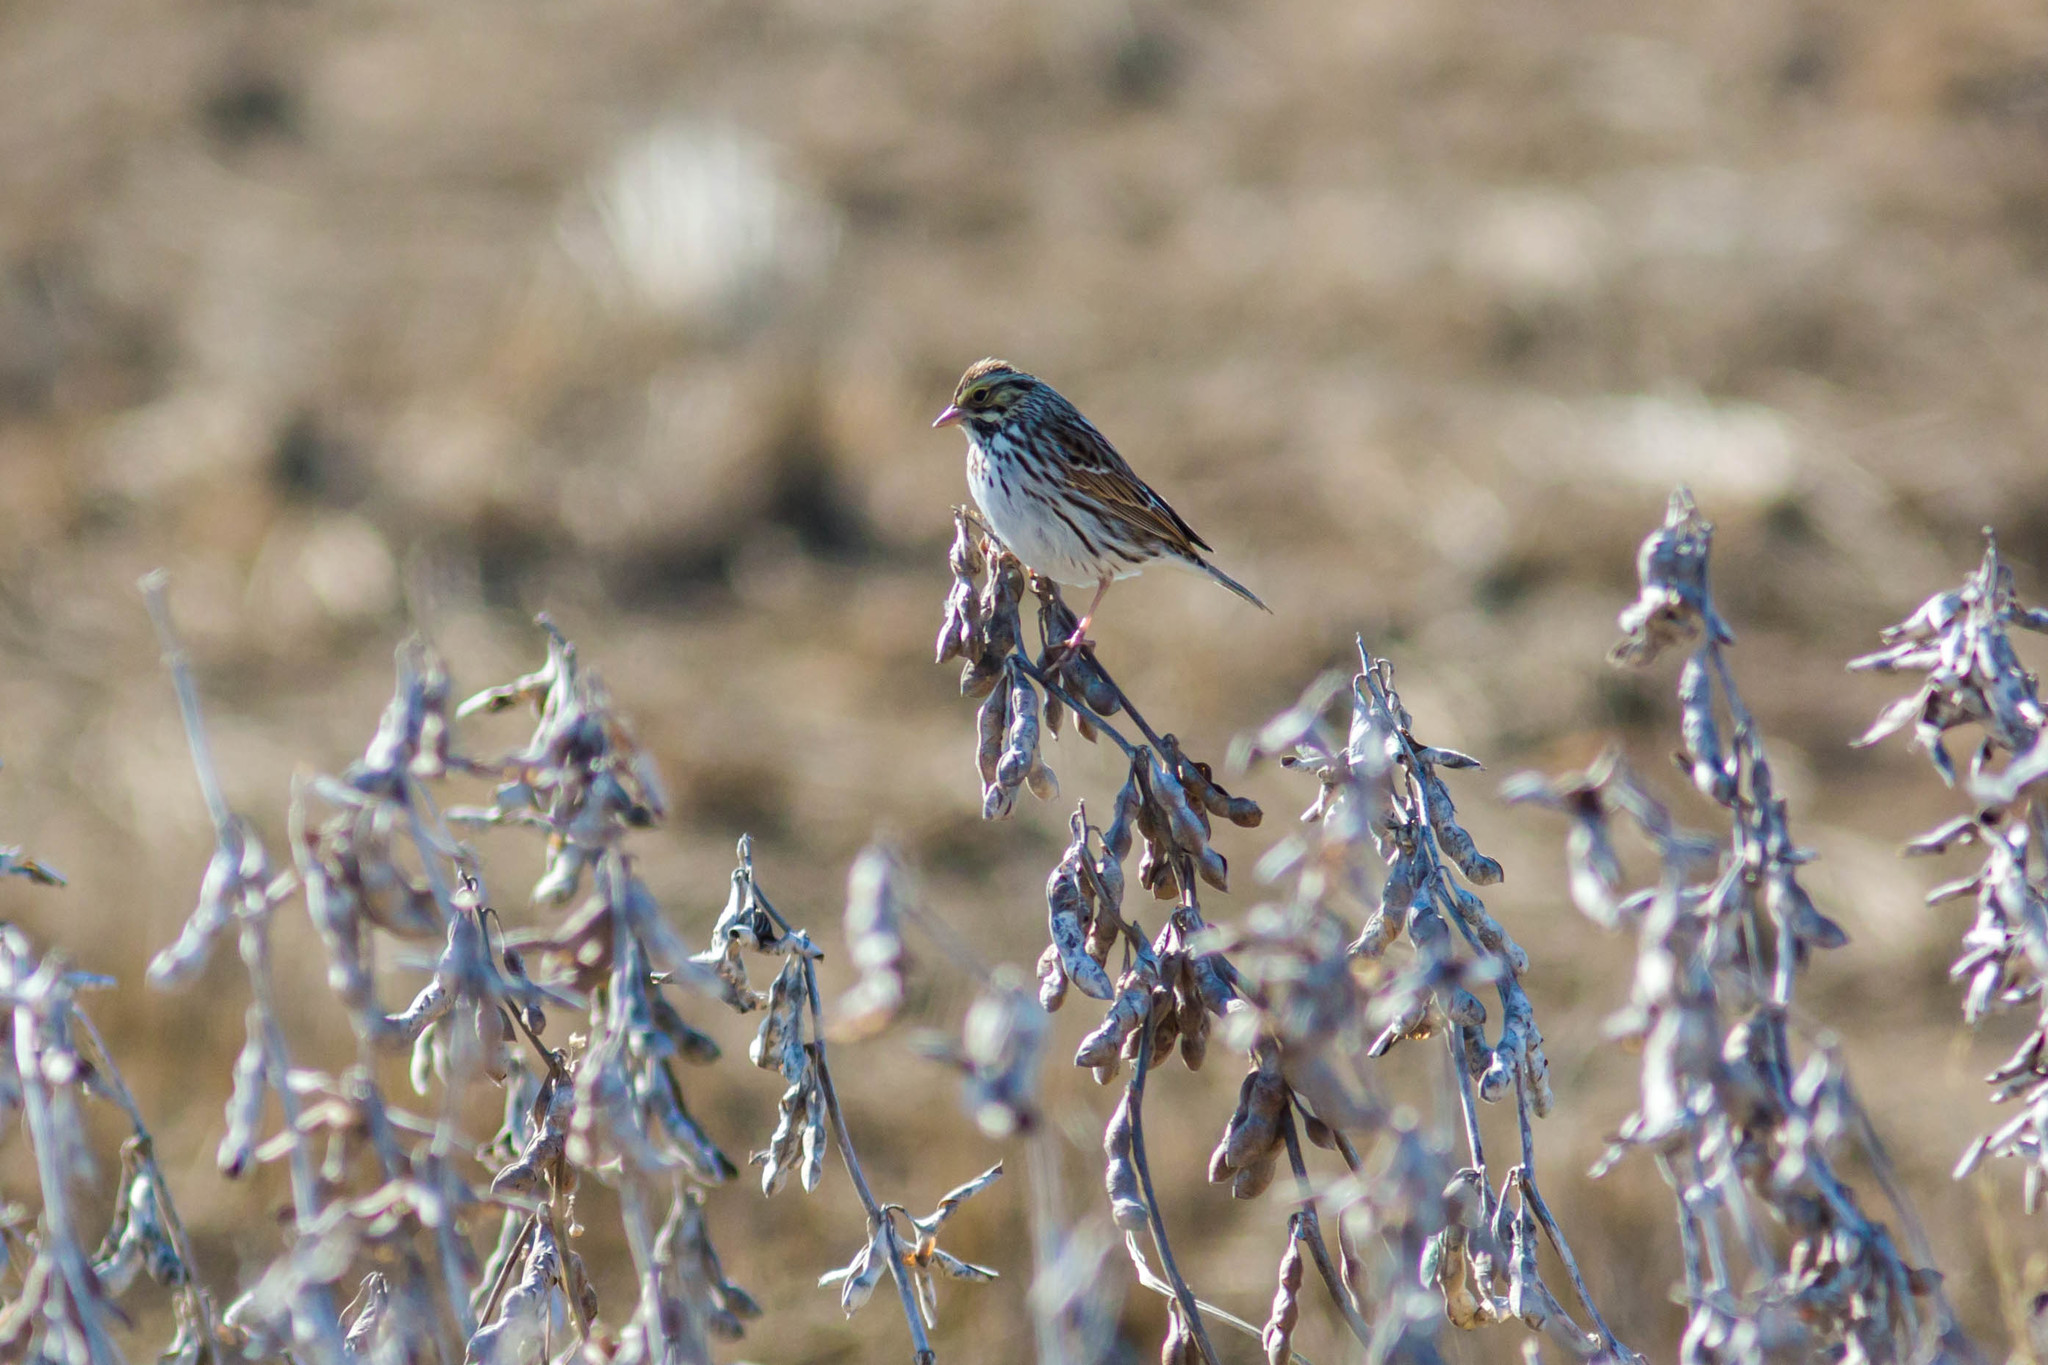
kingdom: Animalia
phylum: Chordata
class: Aves
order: Passeriformes
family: Passerellidae
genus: Passerculus
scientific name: Passerculus sandwichensis
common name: Savannah sparrow
